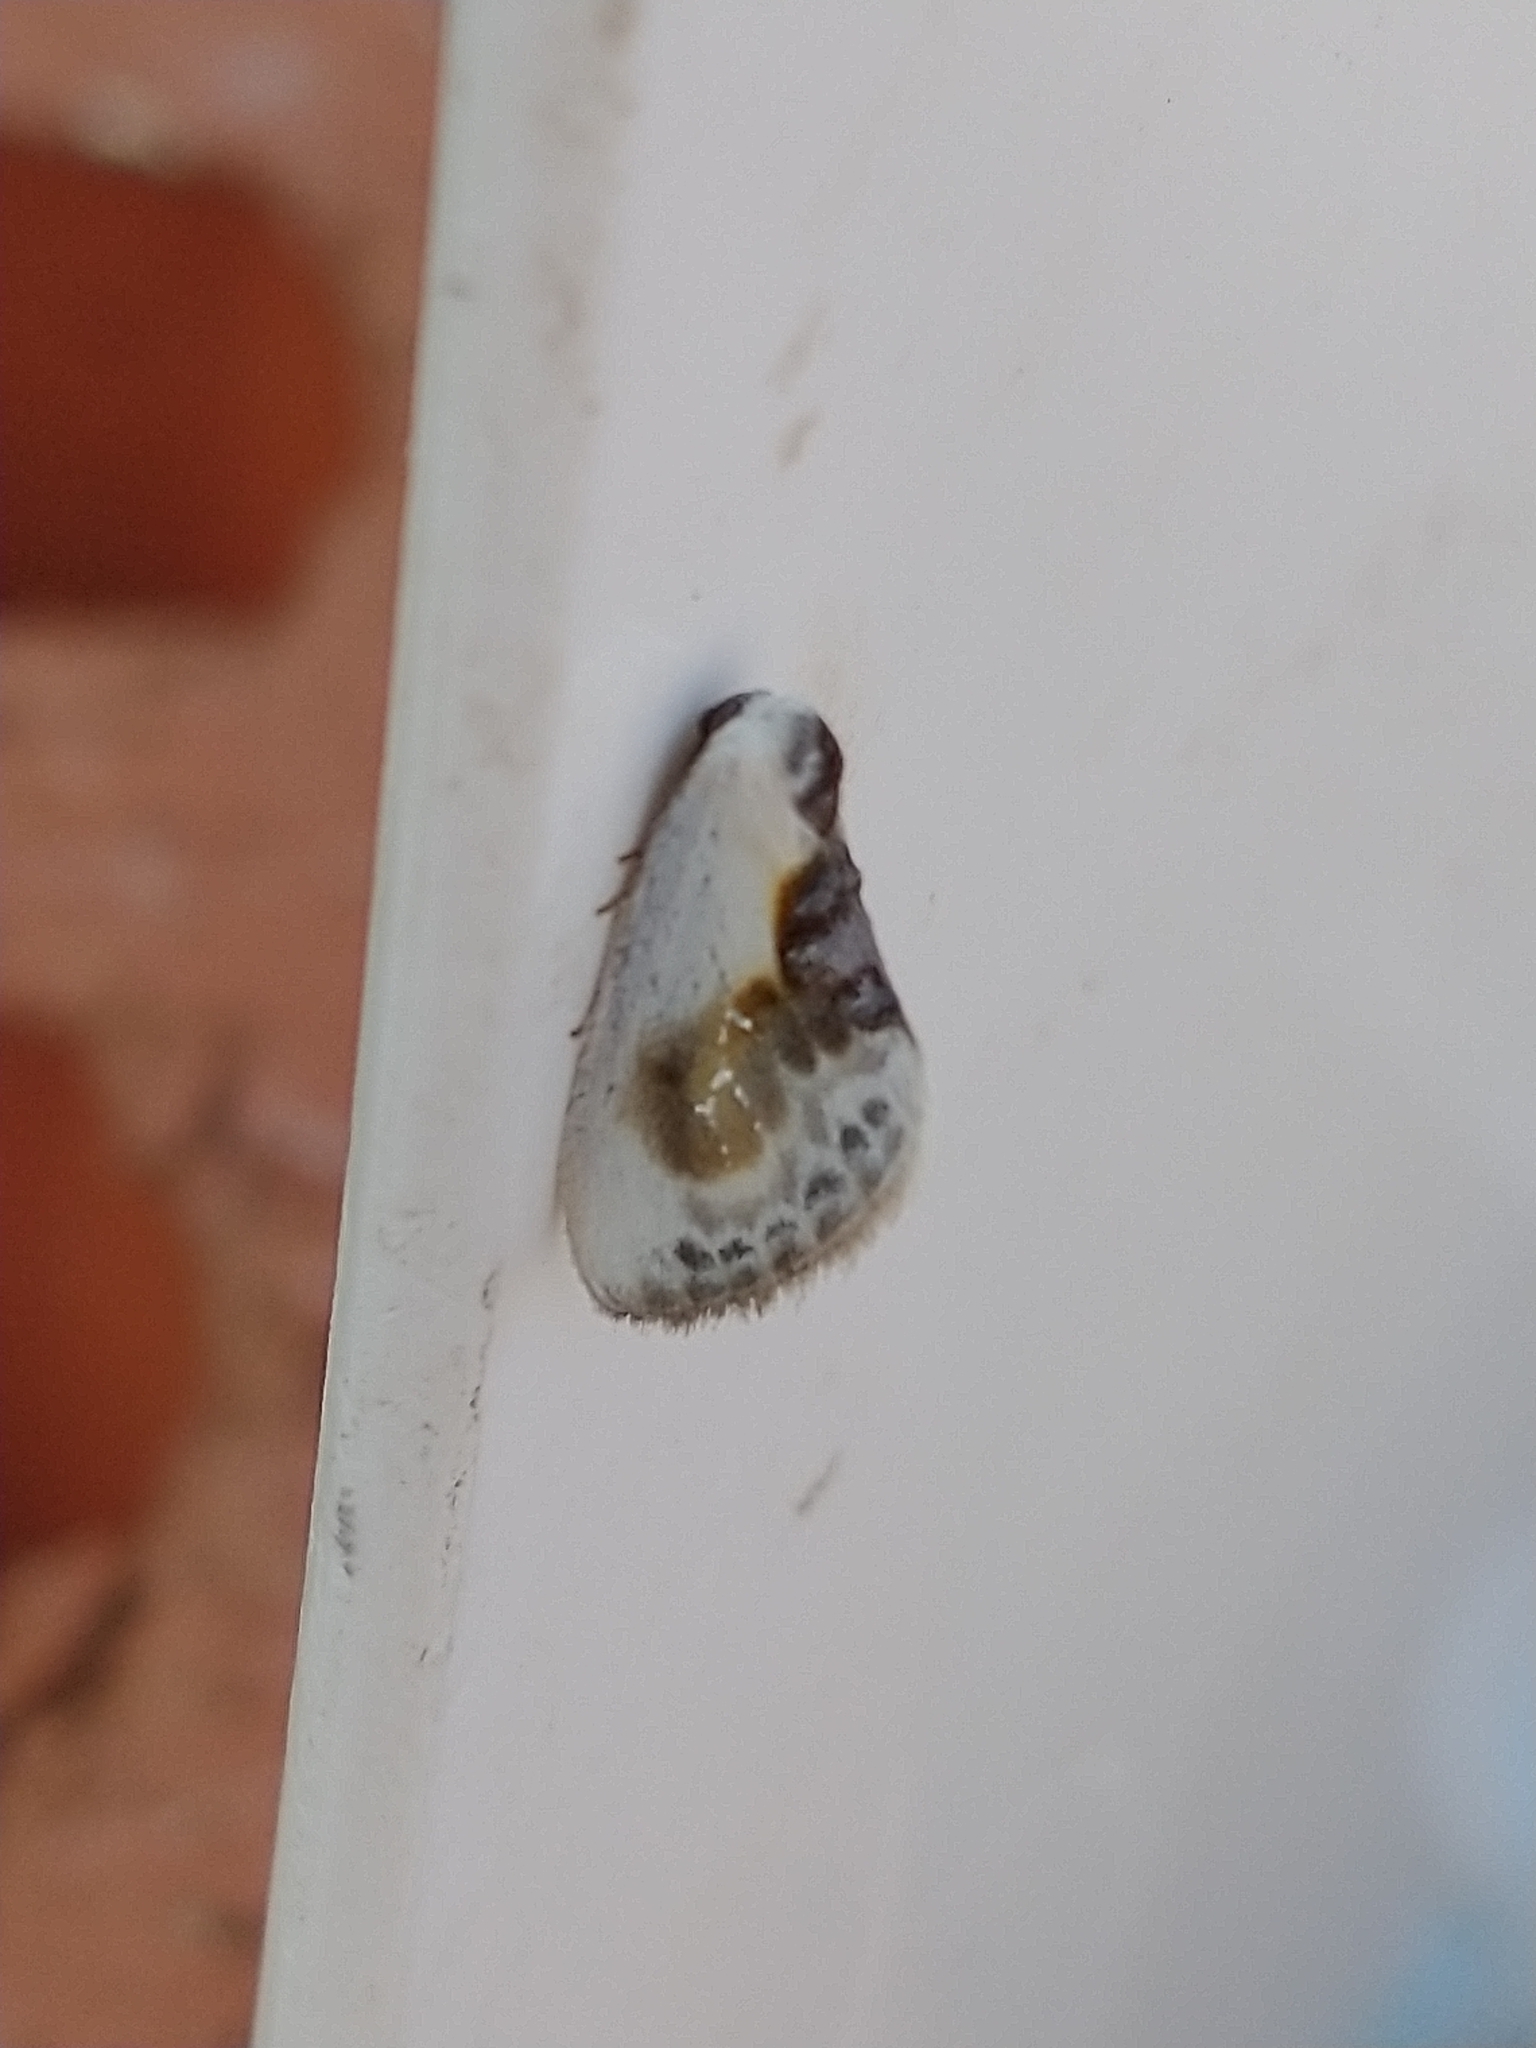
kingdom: Animalia
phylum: Arthropoda
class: Insecta
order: Lepidoptera
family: Drepanidae
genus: Cilix
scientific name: Cilix glaucata
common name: Chinese character
